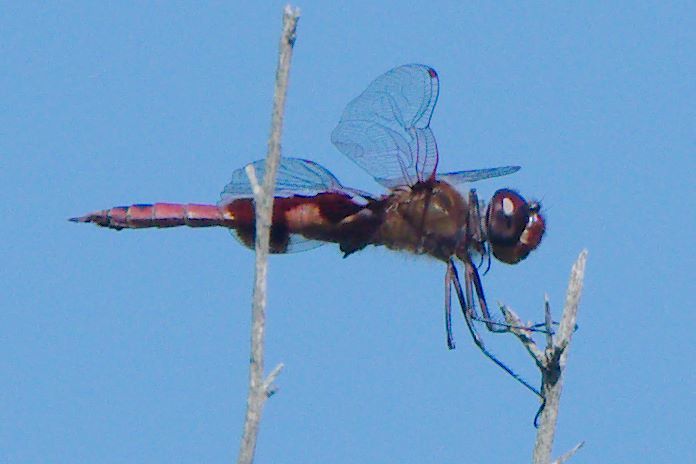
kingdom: Animalia
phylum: Arthropoda
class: Insecta
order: Odonata
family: Libellulidae
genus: Tramea
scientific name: Tramea onusta
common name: Red saddlebags
